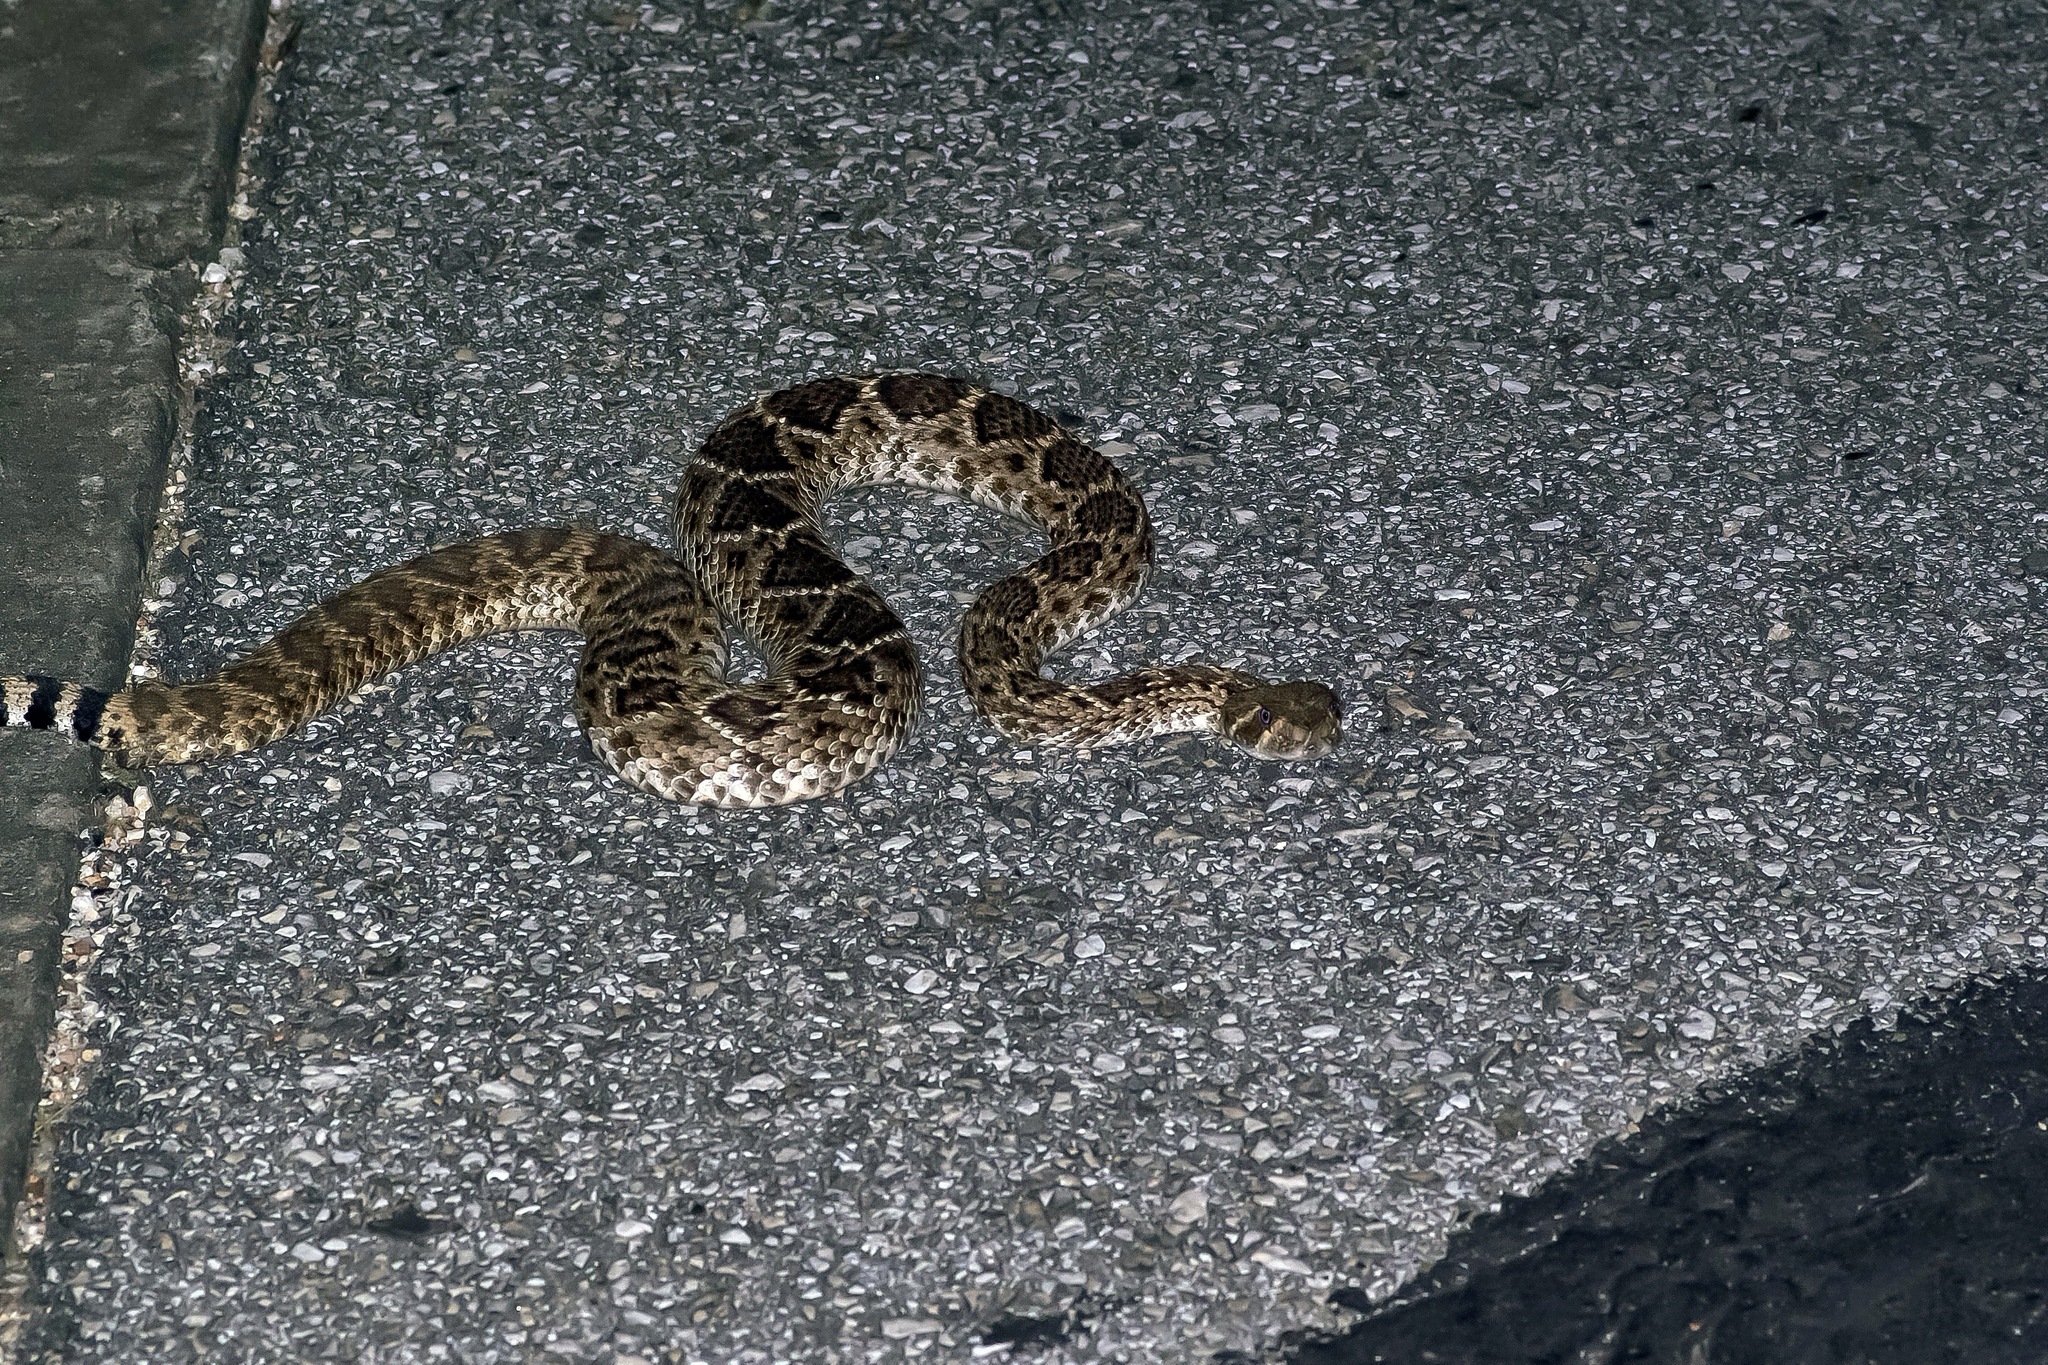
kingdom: Animalia
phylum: Chordata
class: Squamata
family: Viperidae
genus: Crotalus
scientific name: Crotalus atrox
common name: Western diamond-backed rattlesnake
